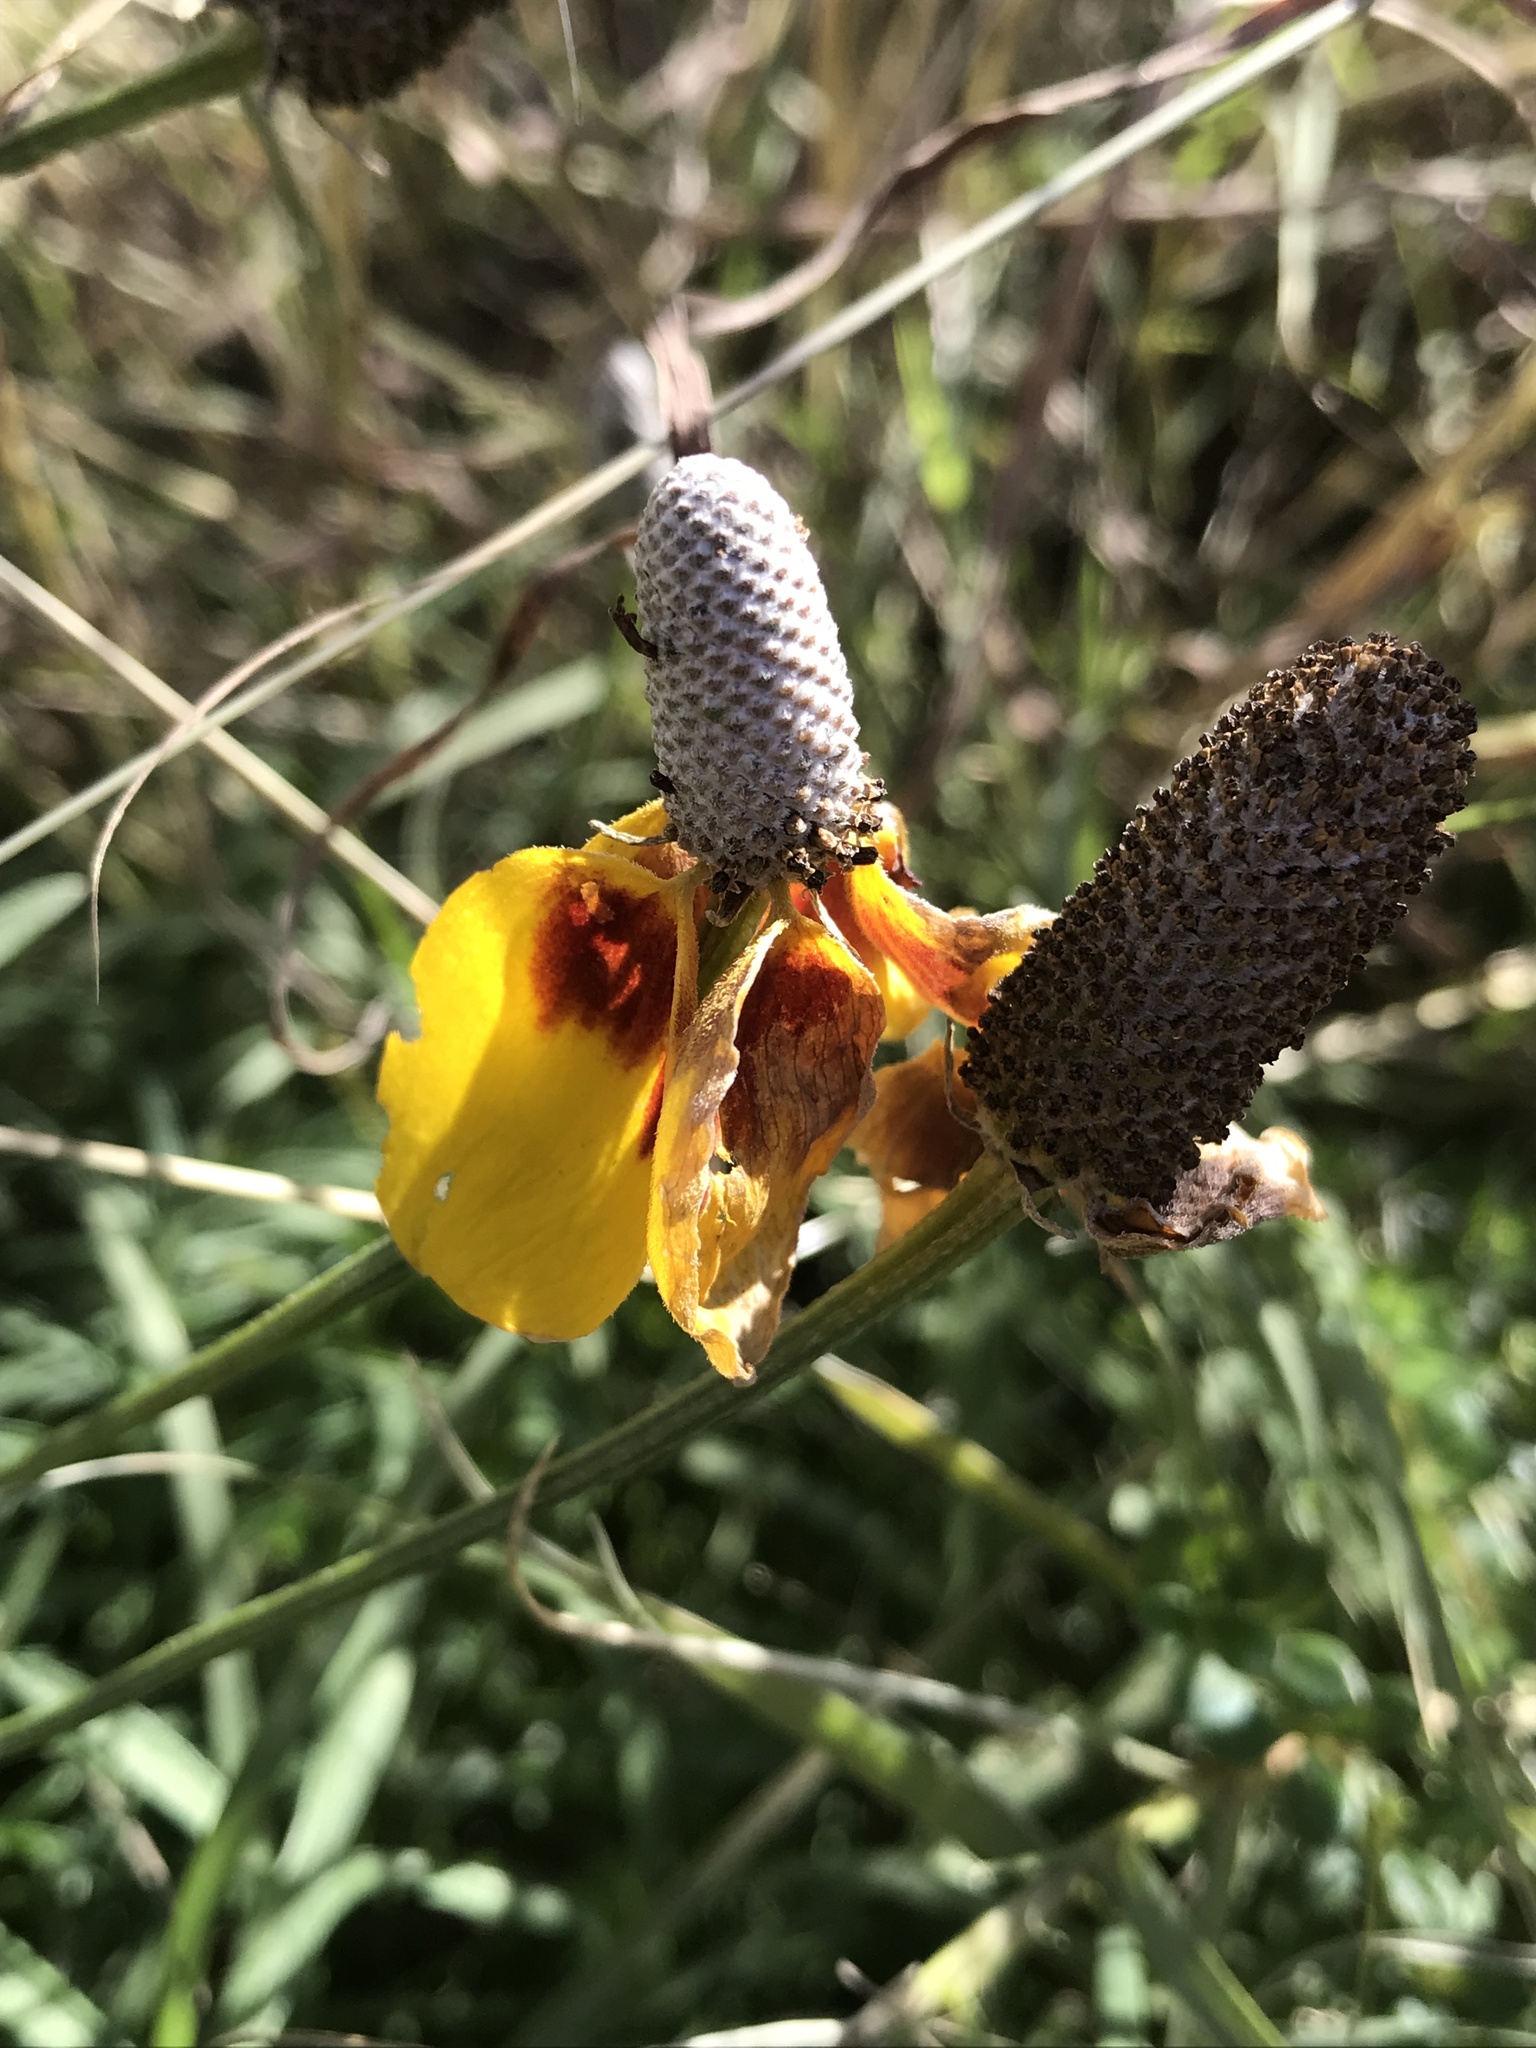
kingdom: Plantae
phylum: Tracheophyta
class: Magnoliopsida
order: Asterales
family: Asteraceae
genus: Ratibida
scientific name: Ratibida columnifera
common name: Prairie coneflower
